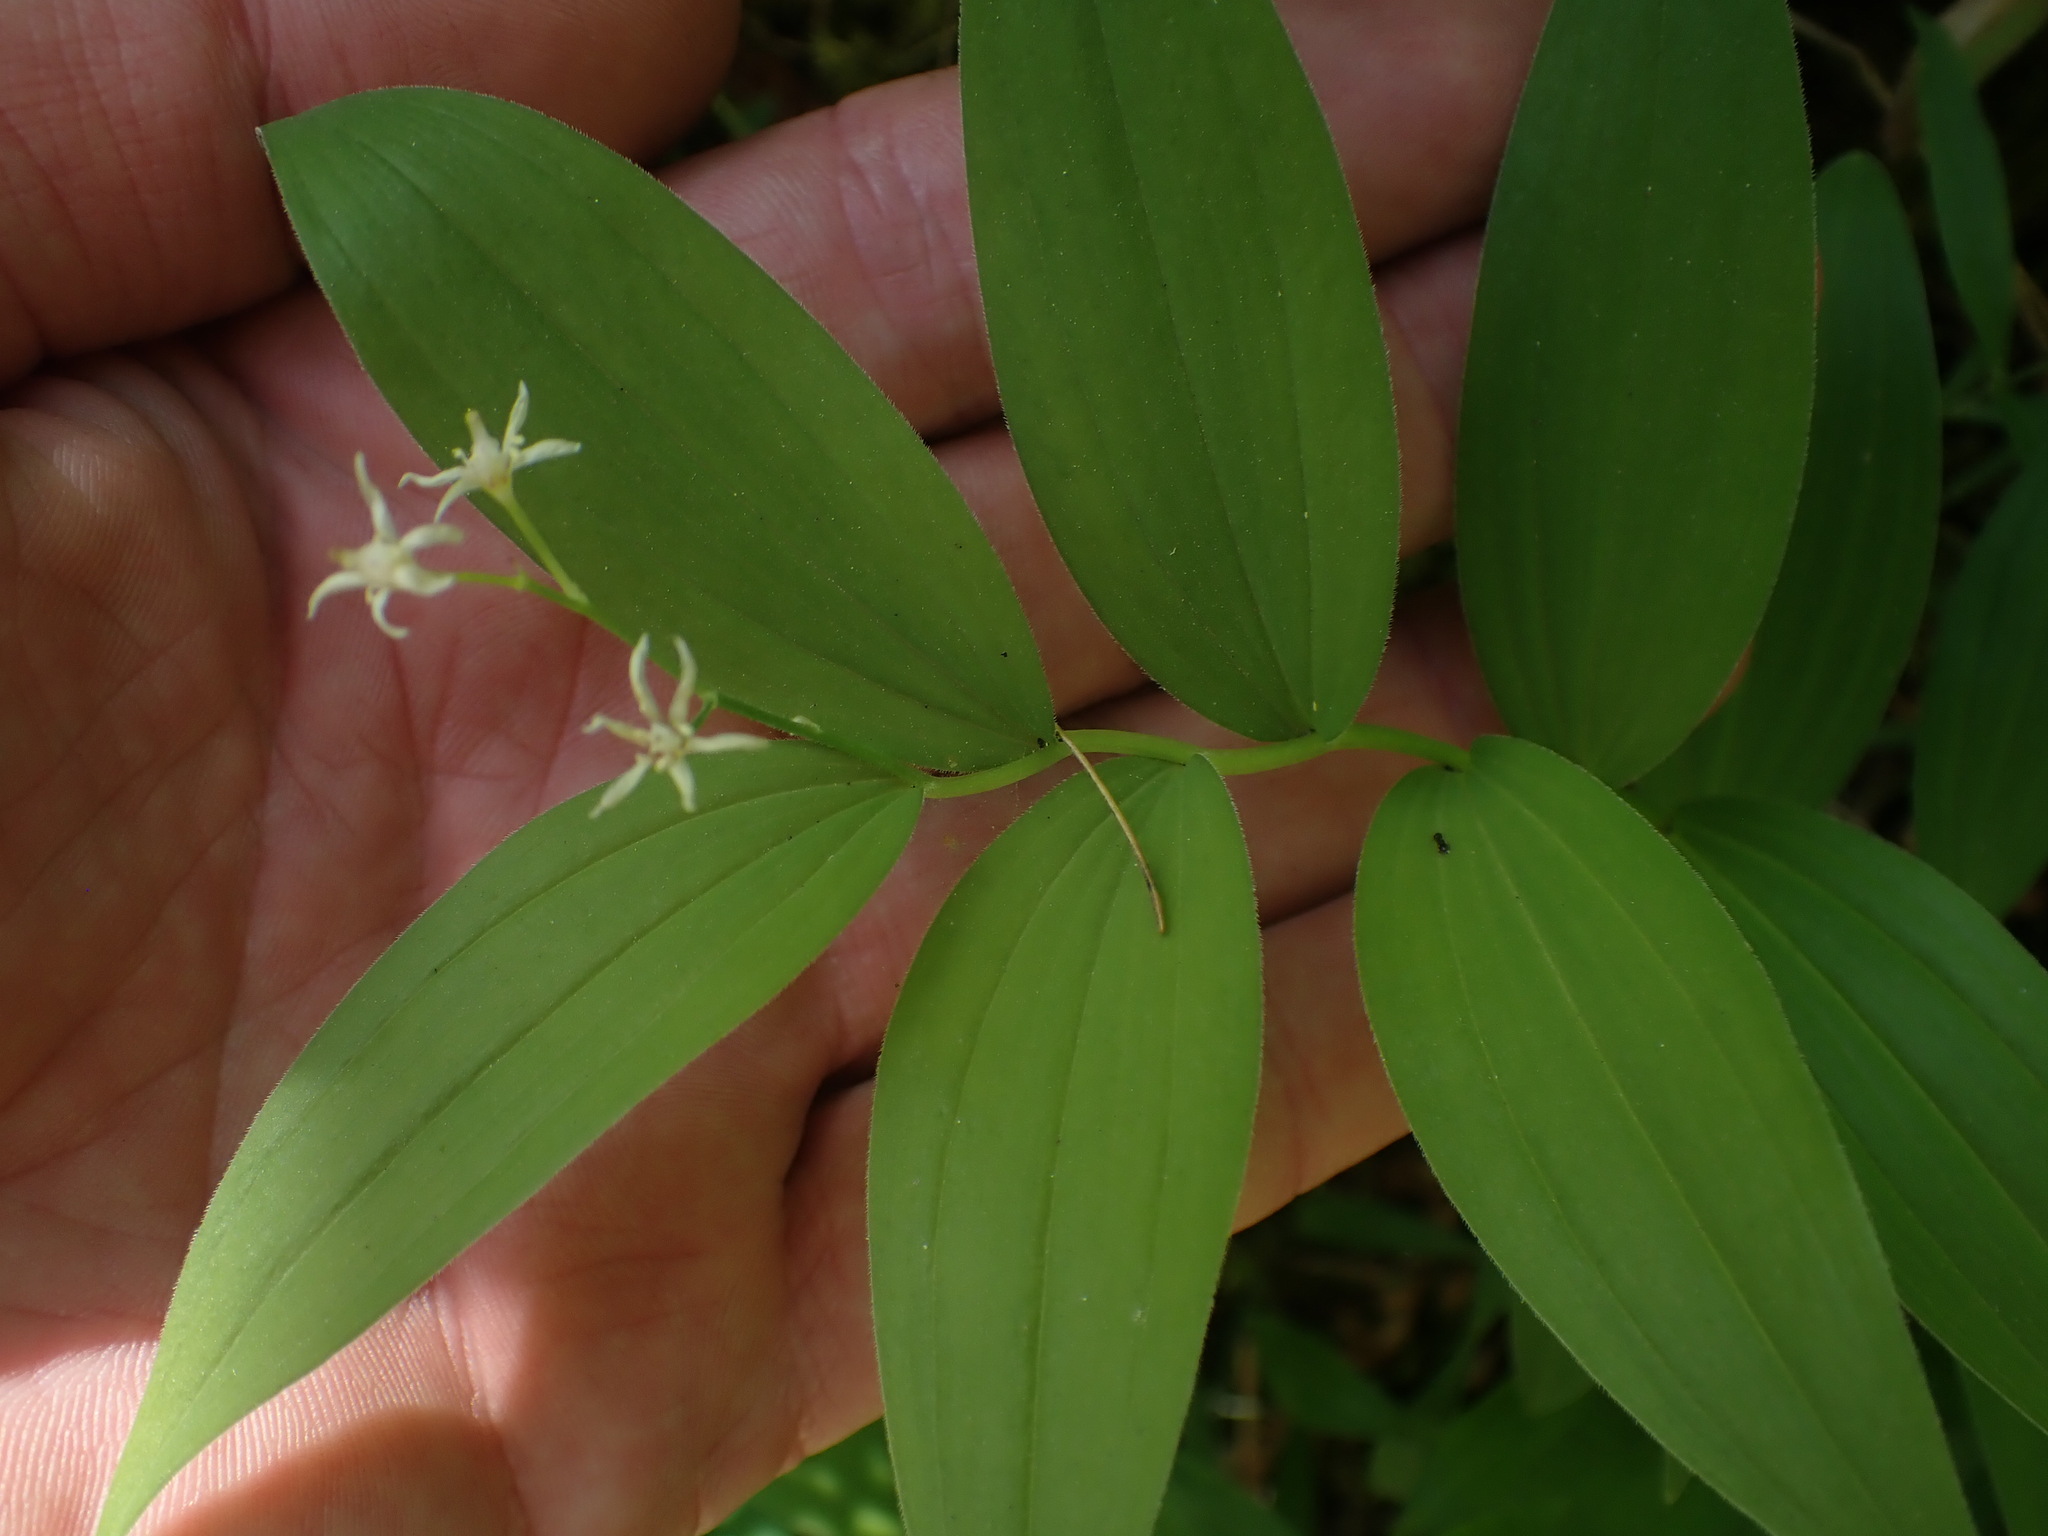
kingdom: Plantae
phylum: Tracheophyta
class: Liliopsida
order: Asparagales
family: Asparagaceae
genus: Maianthemum
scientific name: Maianthemum stellatum
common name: Little false solomon's seal
